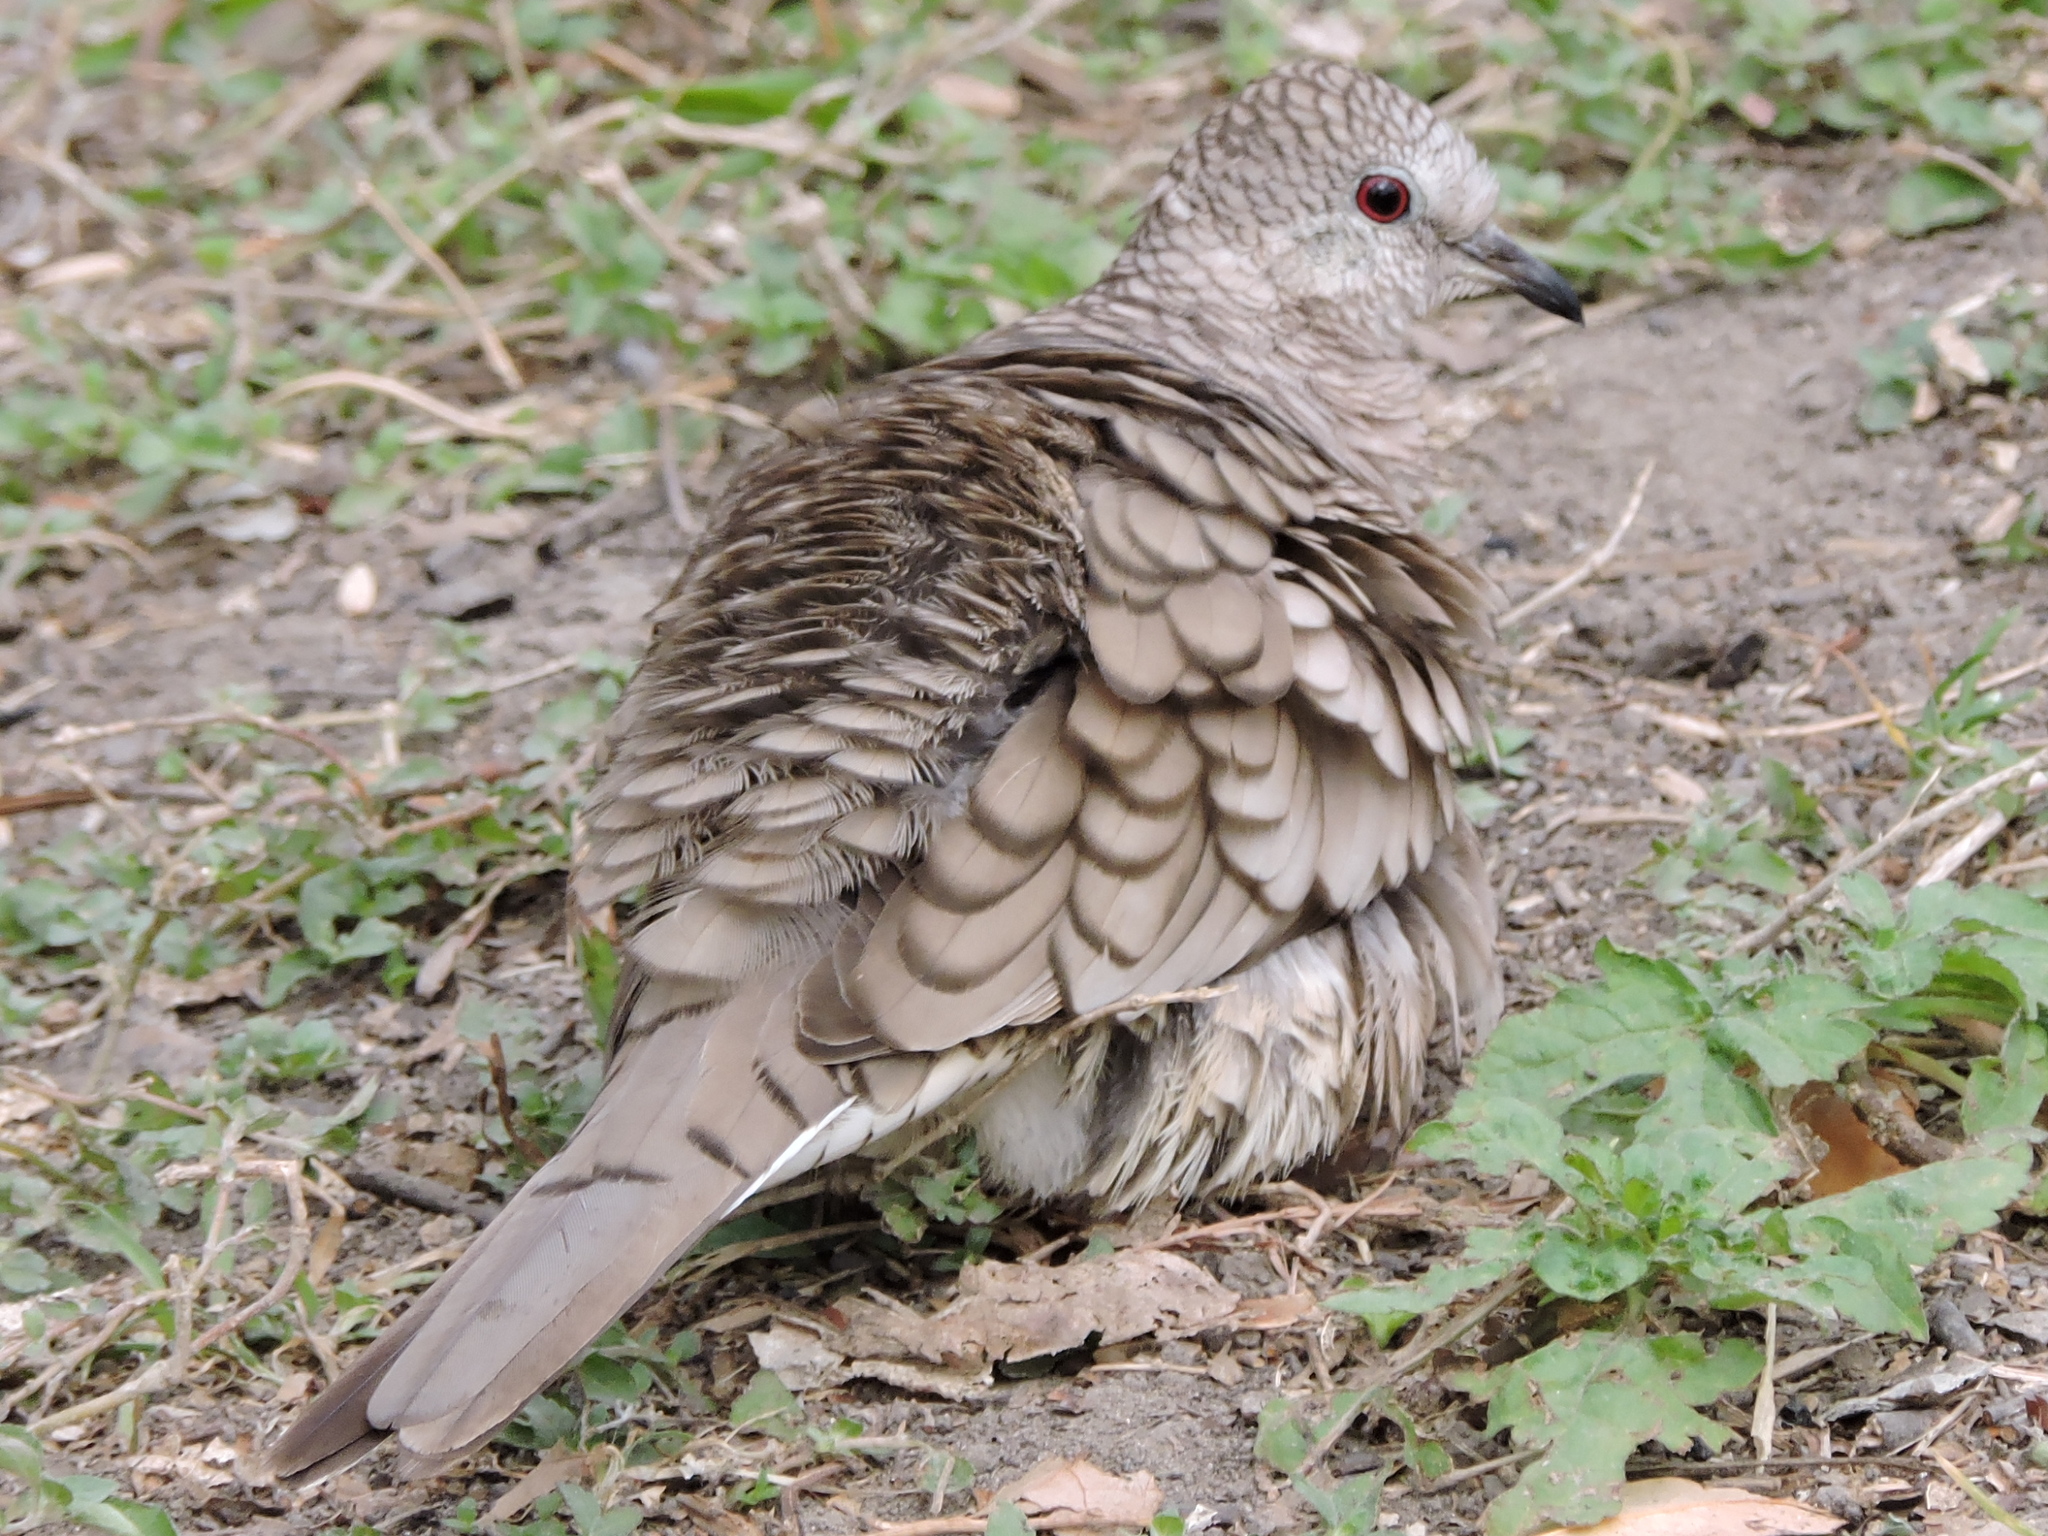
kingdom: Animalia
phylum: Chordata
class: Aves
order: Columbiformes
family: Columbidae
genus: Columbina
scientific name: Columbina inca
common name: Inca dove
